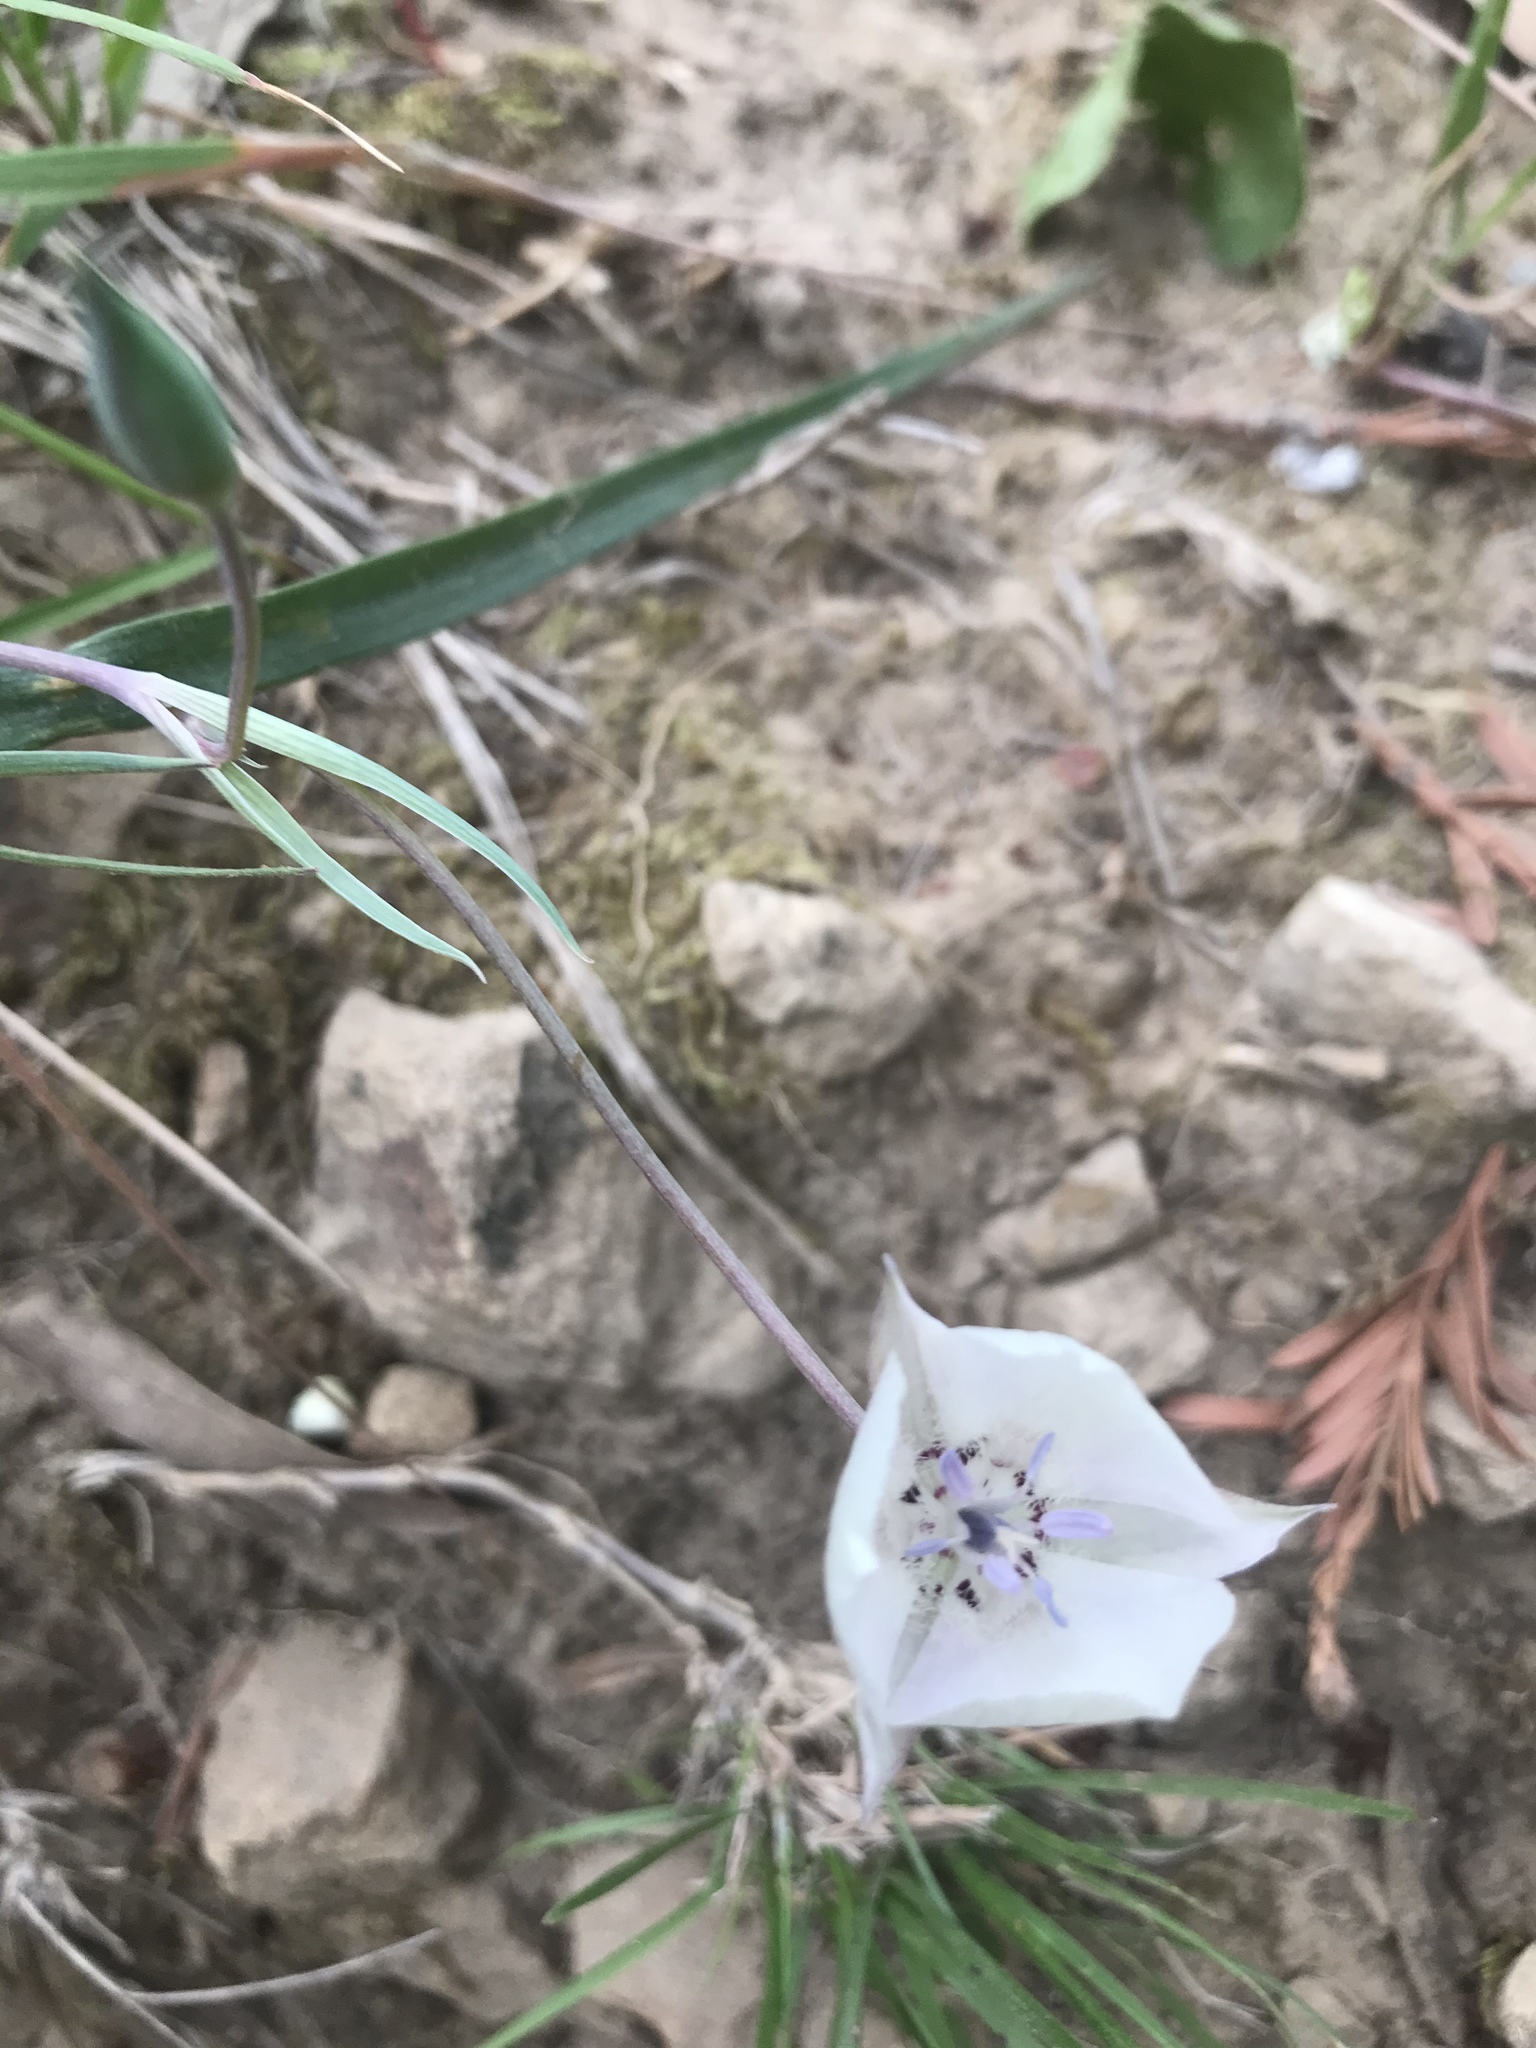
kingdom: Plantae
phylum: Tracheophyta
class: Liliopsida
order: Liliales
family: Liliaceae
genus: Calochortus
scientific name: Calochortus umbellatus
